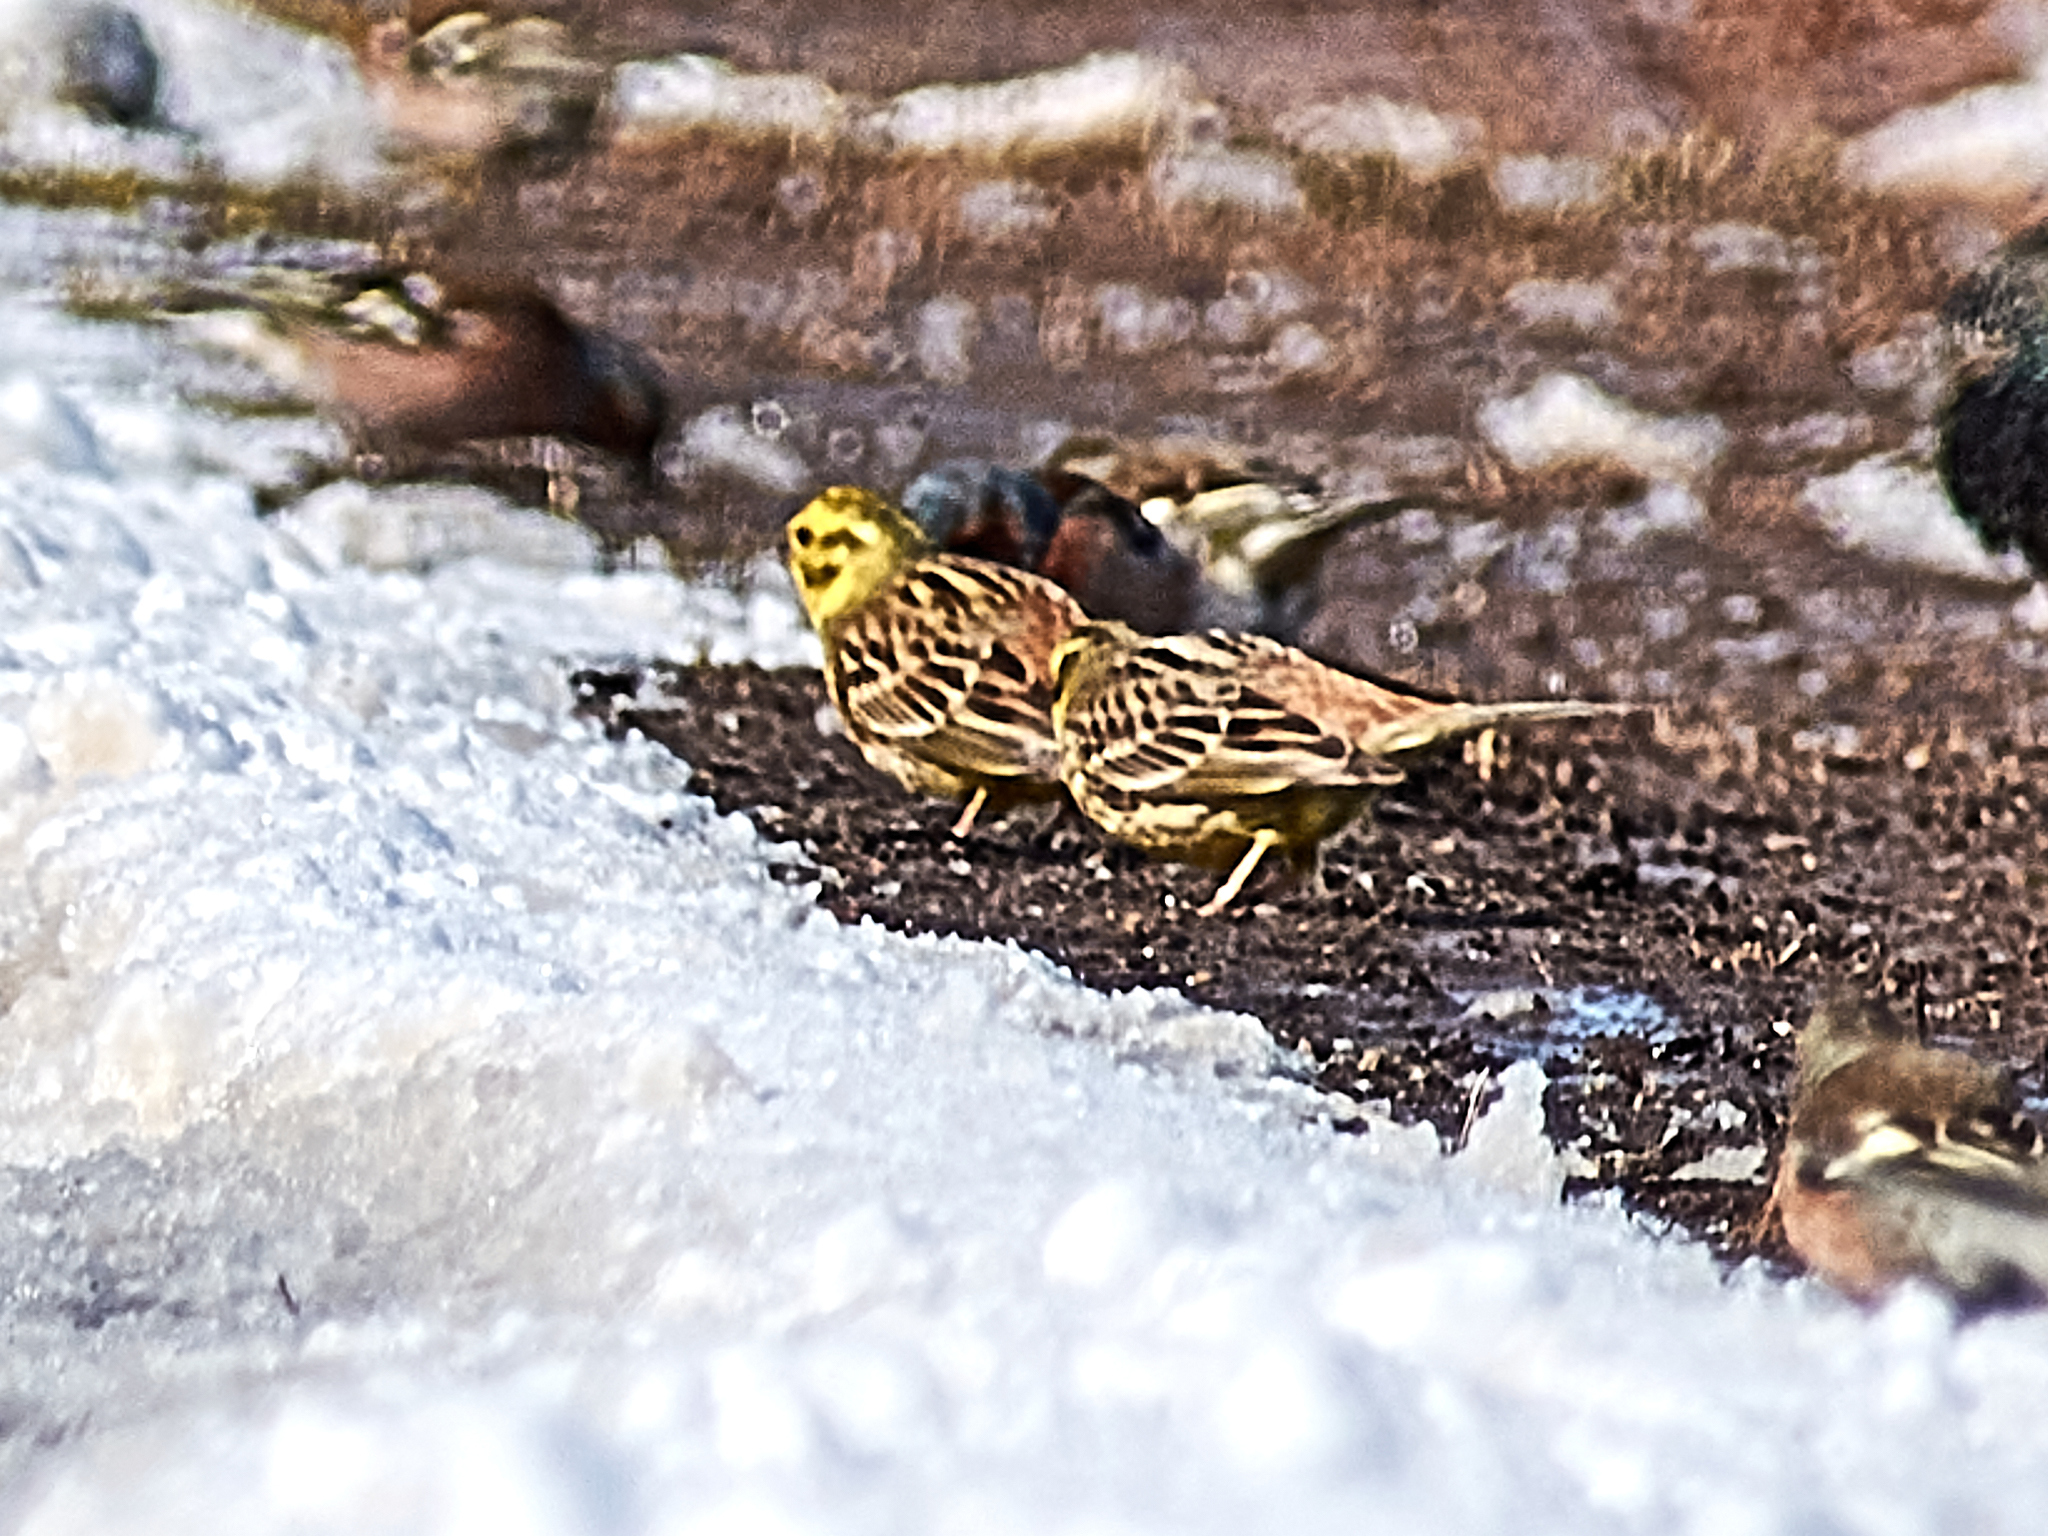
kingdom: Animalia
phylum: Chordata
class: Aves
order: Passeriformes
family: Emberizidae
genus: Emberiza
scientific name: Emberiza citrinella
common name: Yellowhammer
